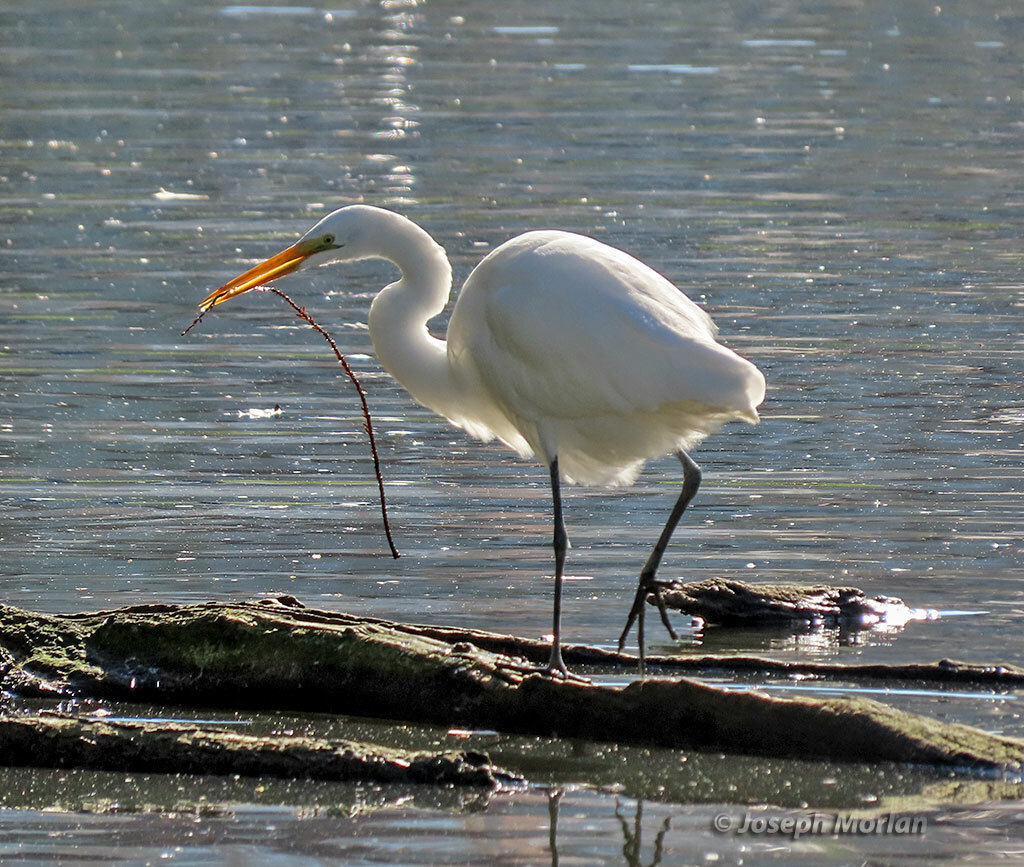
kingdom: Animalia
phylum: Chordata
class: Aves
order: Pelecaniformes
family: Ardeidae
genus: Ardea
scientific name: Ardea alba
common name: Great egret
